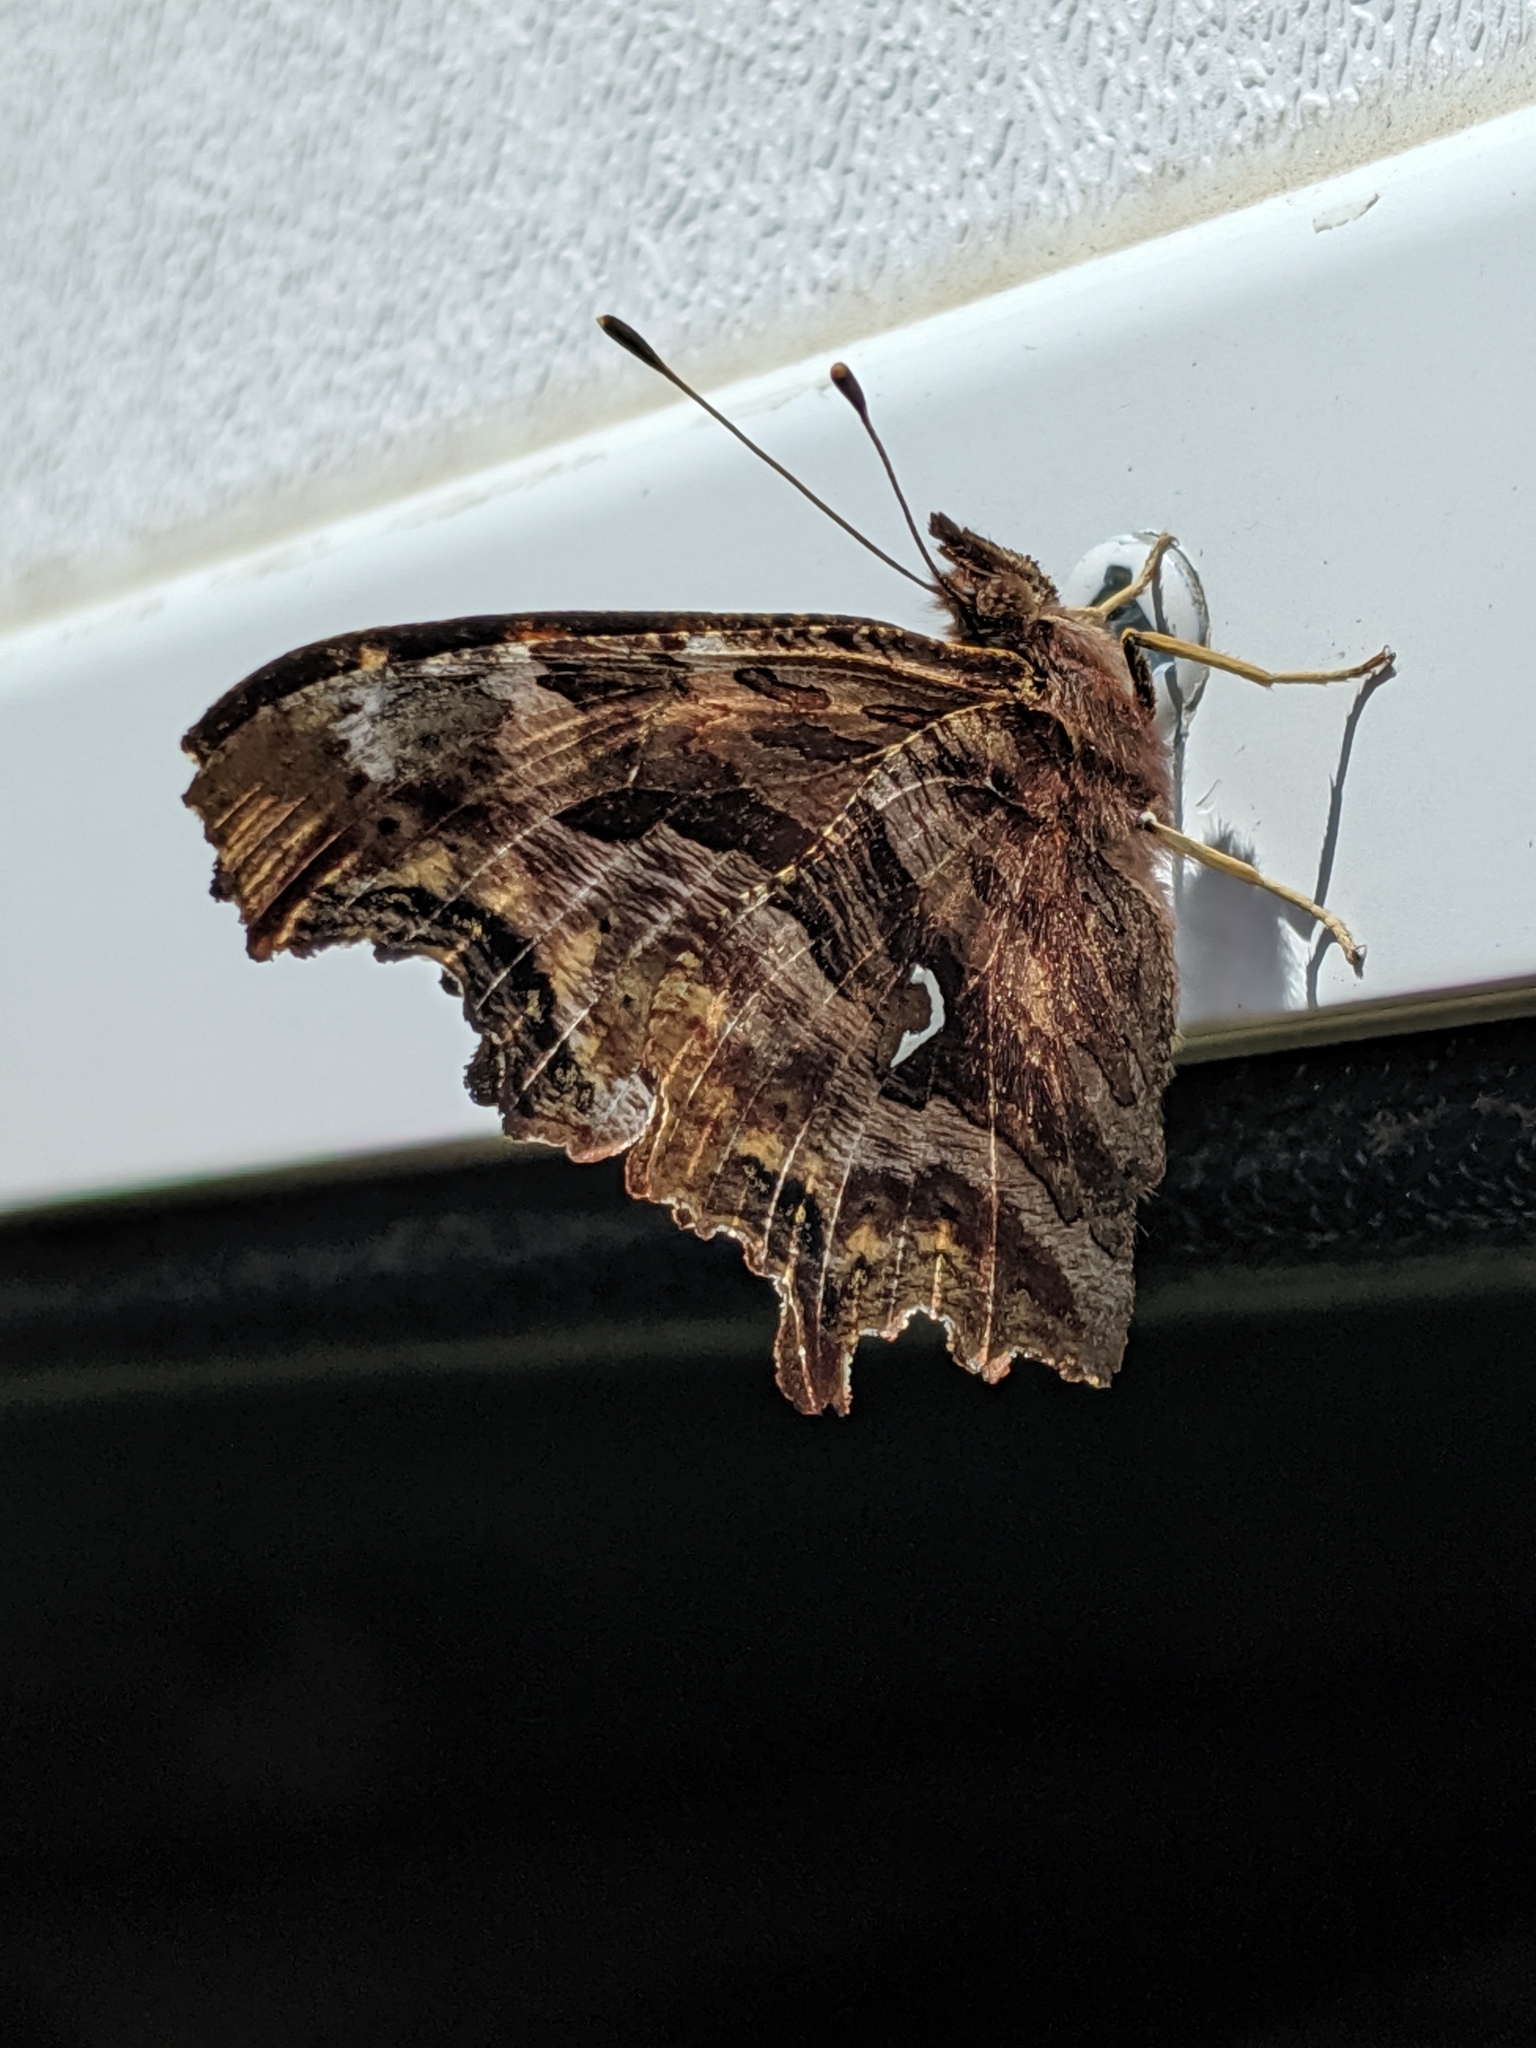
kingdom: Animalia
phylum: Arthropoda
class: Insecta
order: Lepidoptera
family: Nymphalidae
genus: Polygonia
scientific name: Polygonia satyrus
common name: Satyr angle wing
